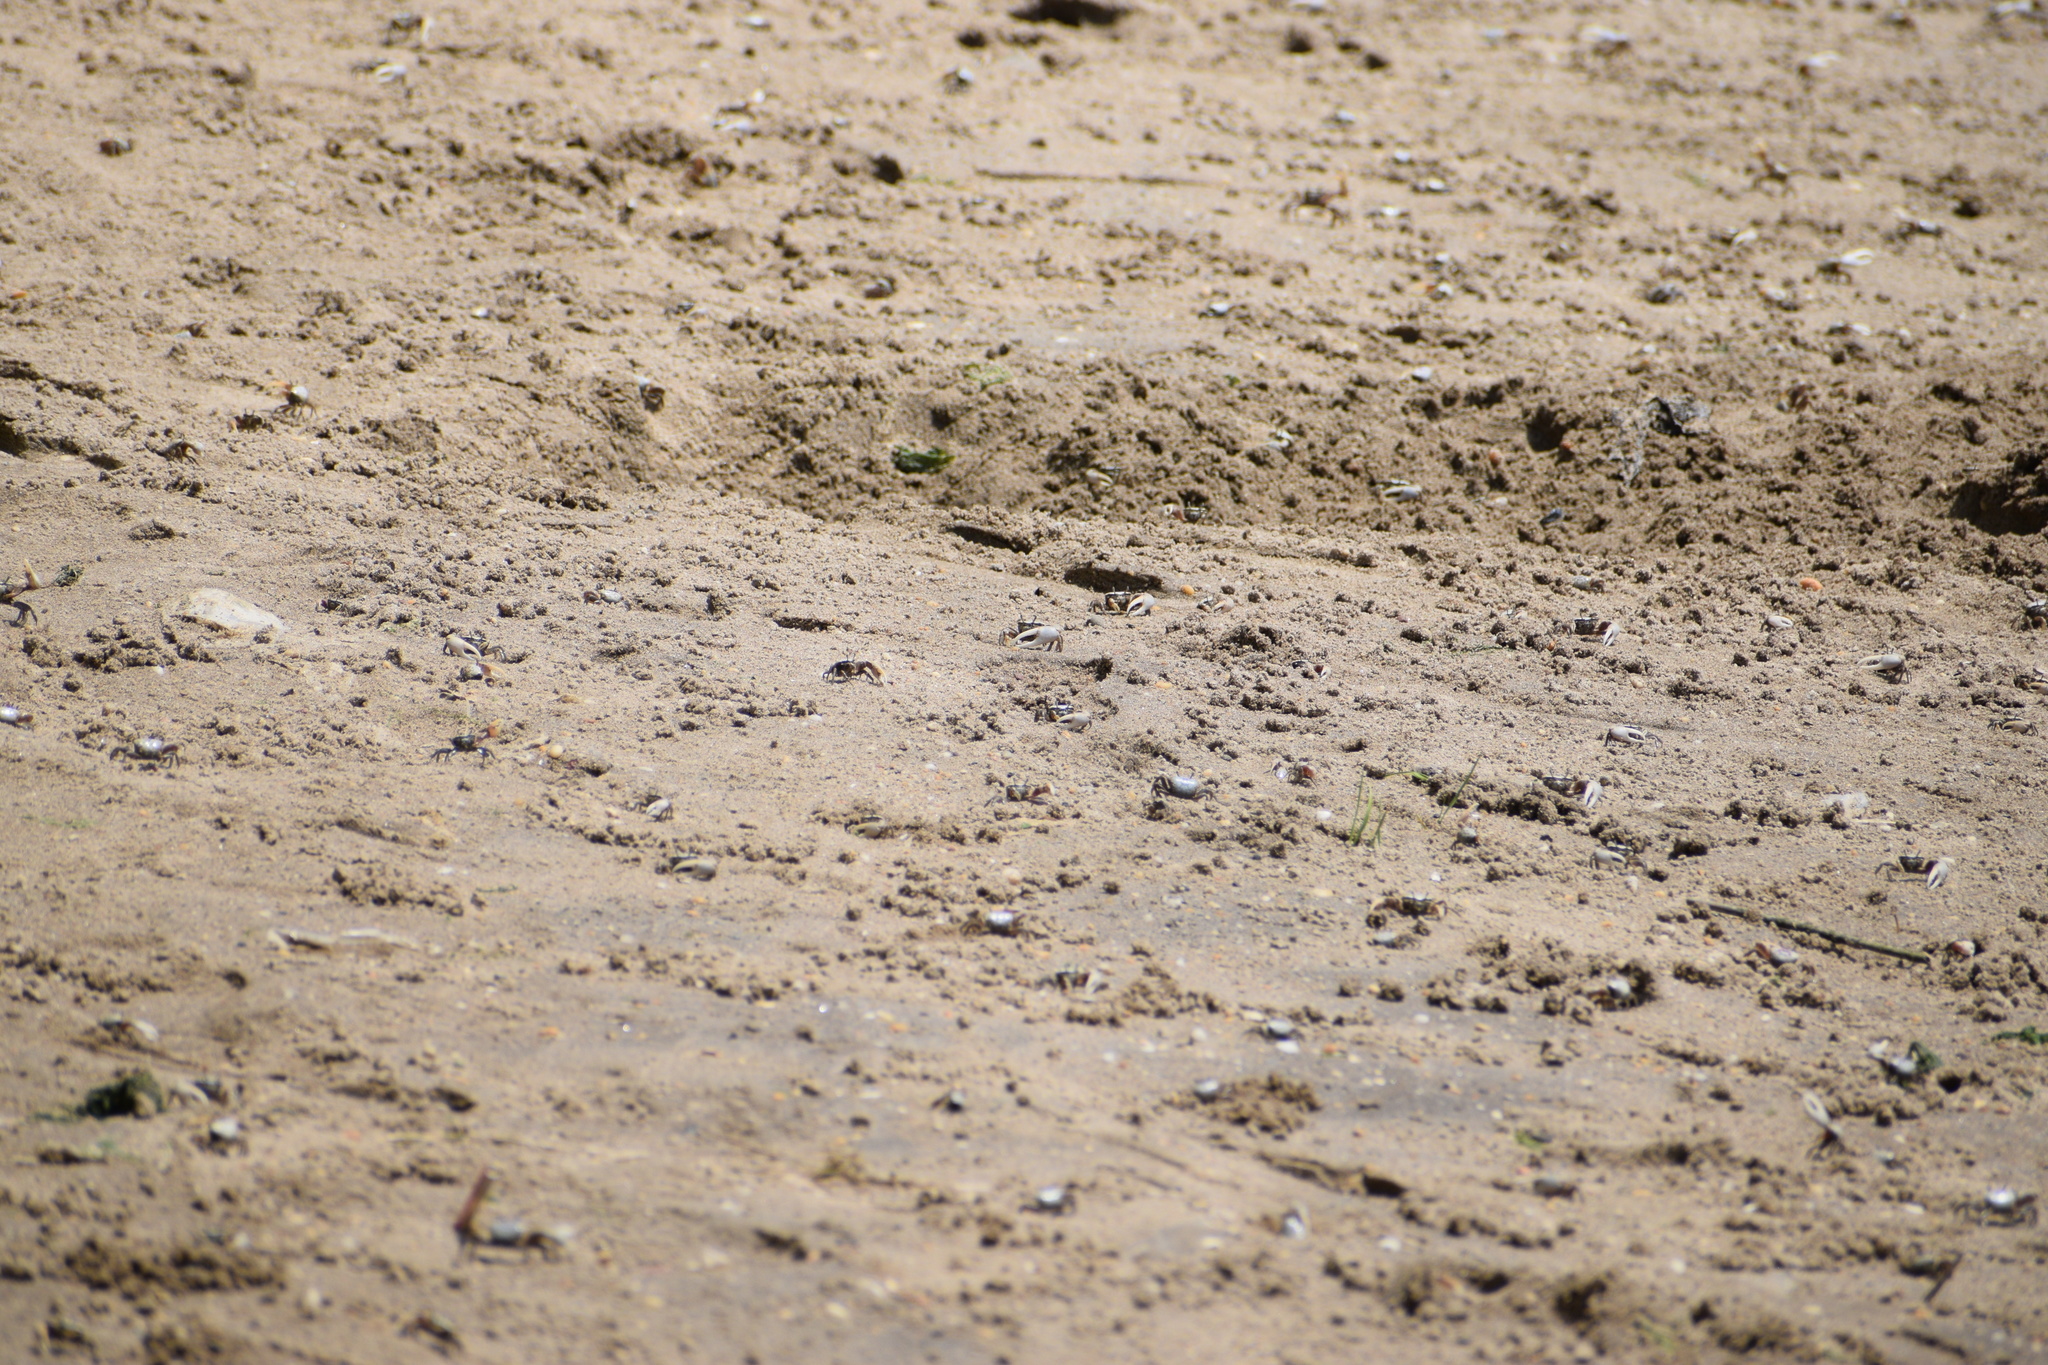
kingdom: Animalia
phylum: Arthropoda
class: Malacostraca
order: Decapoda
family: Ocypodidae
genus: Leptuca
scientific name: Leptuca pugilator
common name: Atlantic sand fiddler crab
